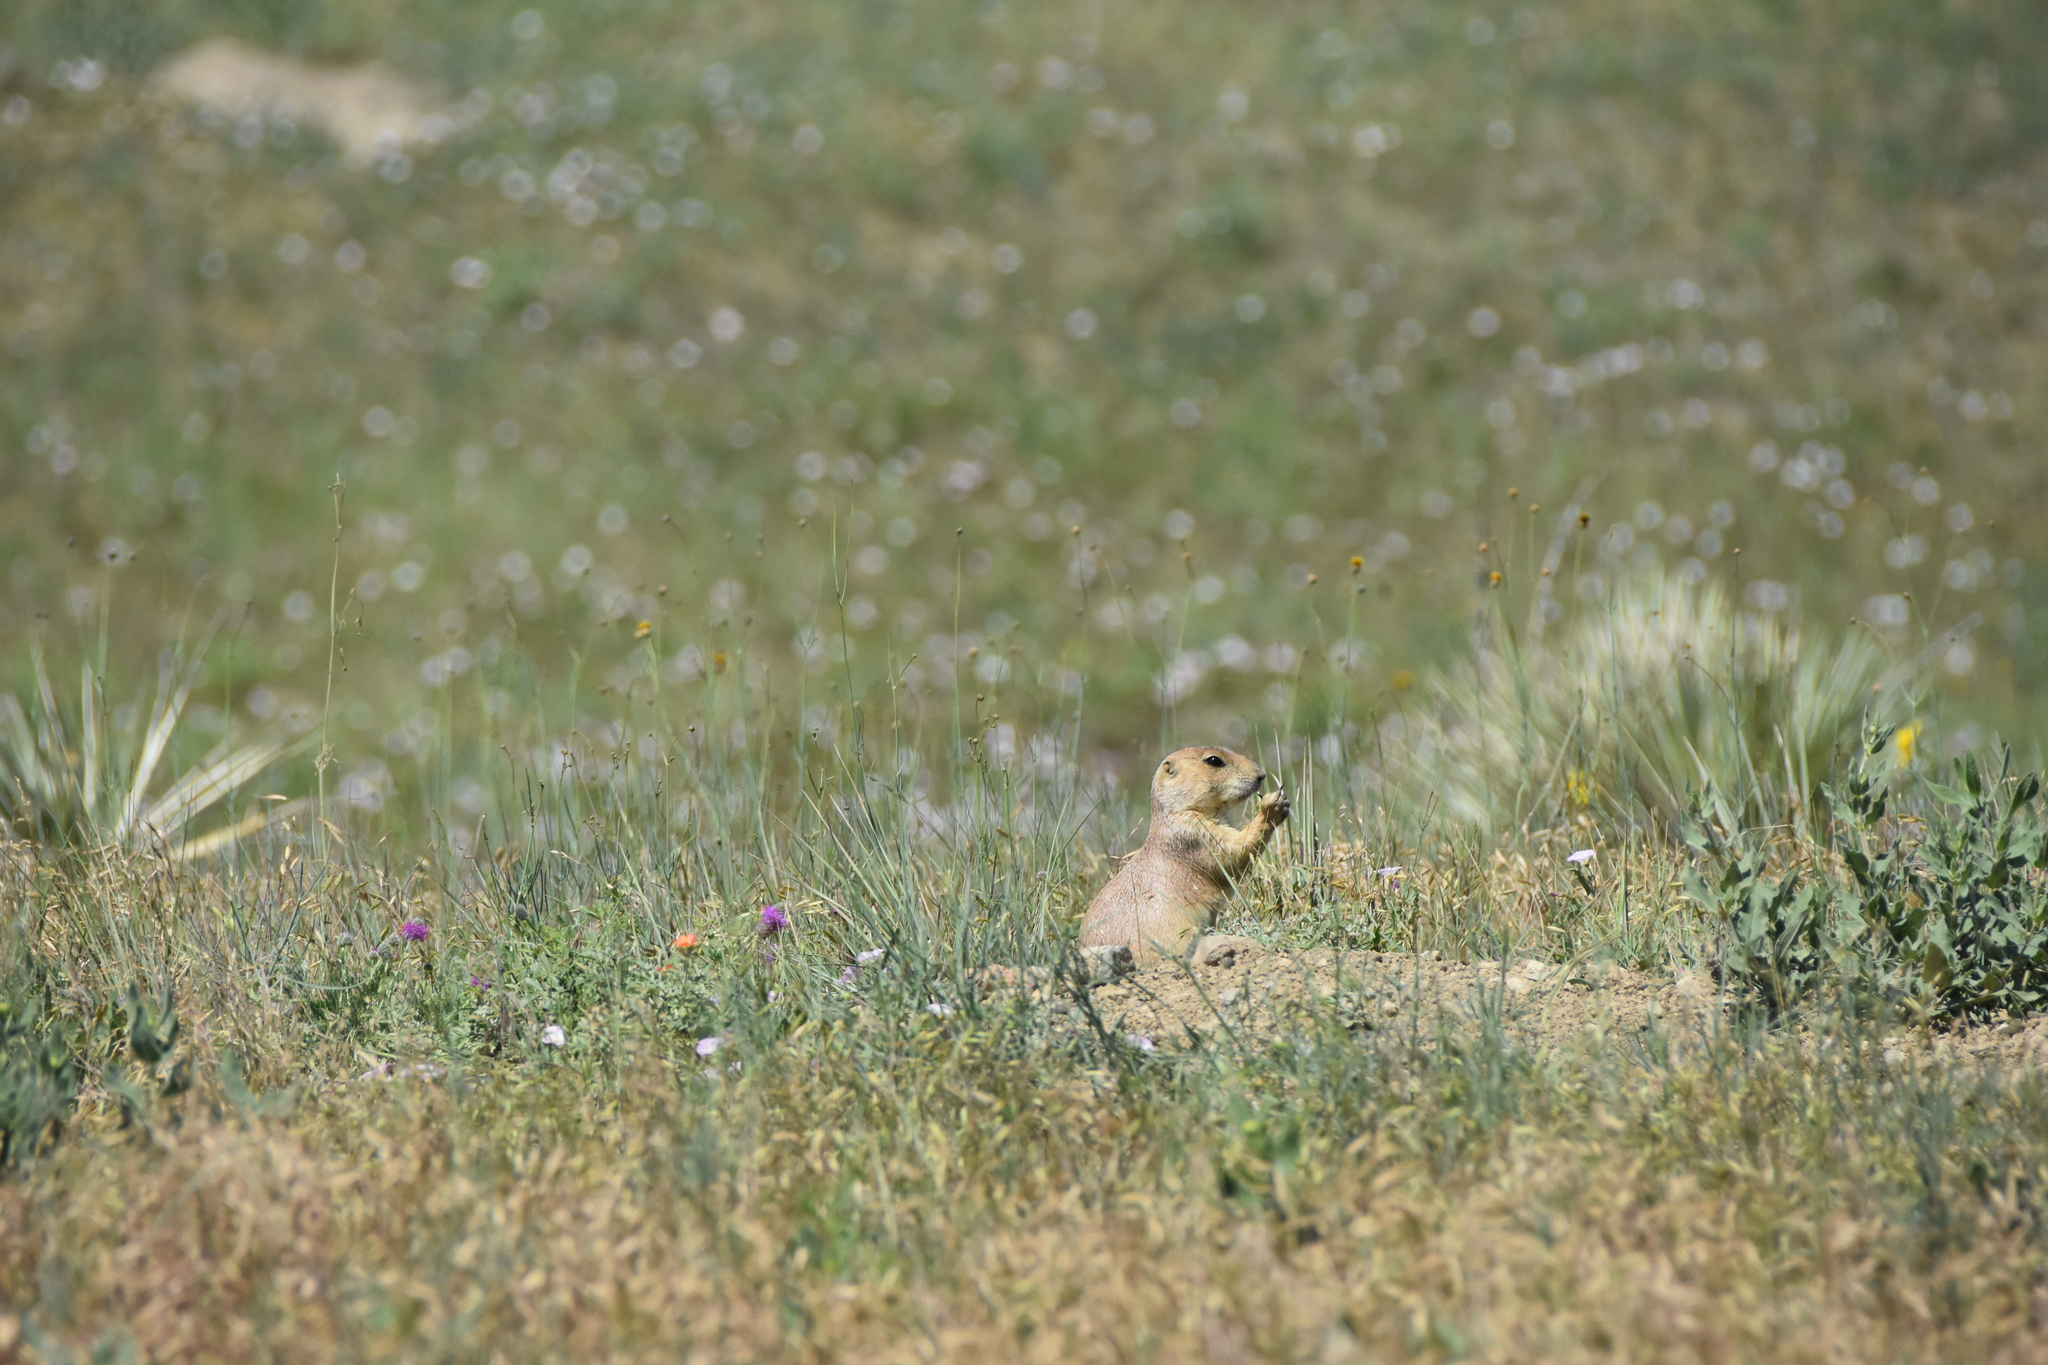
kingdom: Animalia
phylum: Chordata
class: Mammalia
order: Rodentia
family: Sciuridae
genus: Cynomys
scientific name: Cynomys ludovicianus
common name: Black-tailed prairie dog
